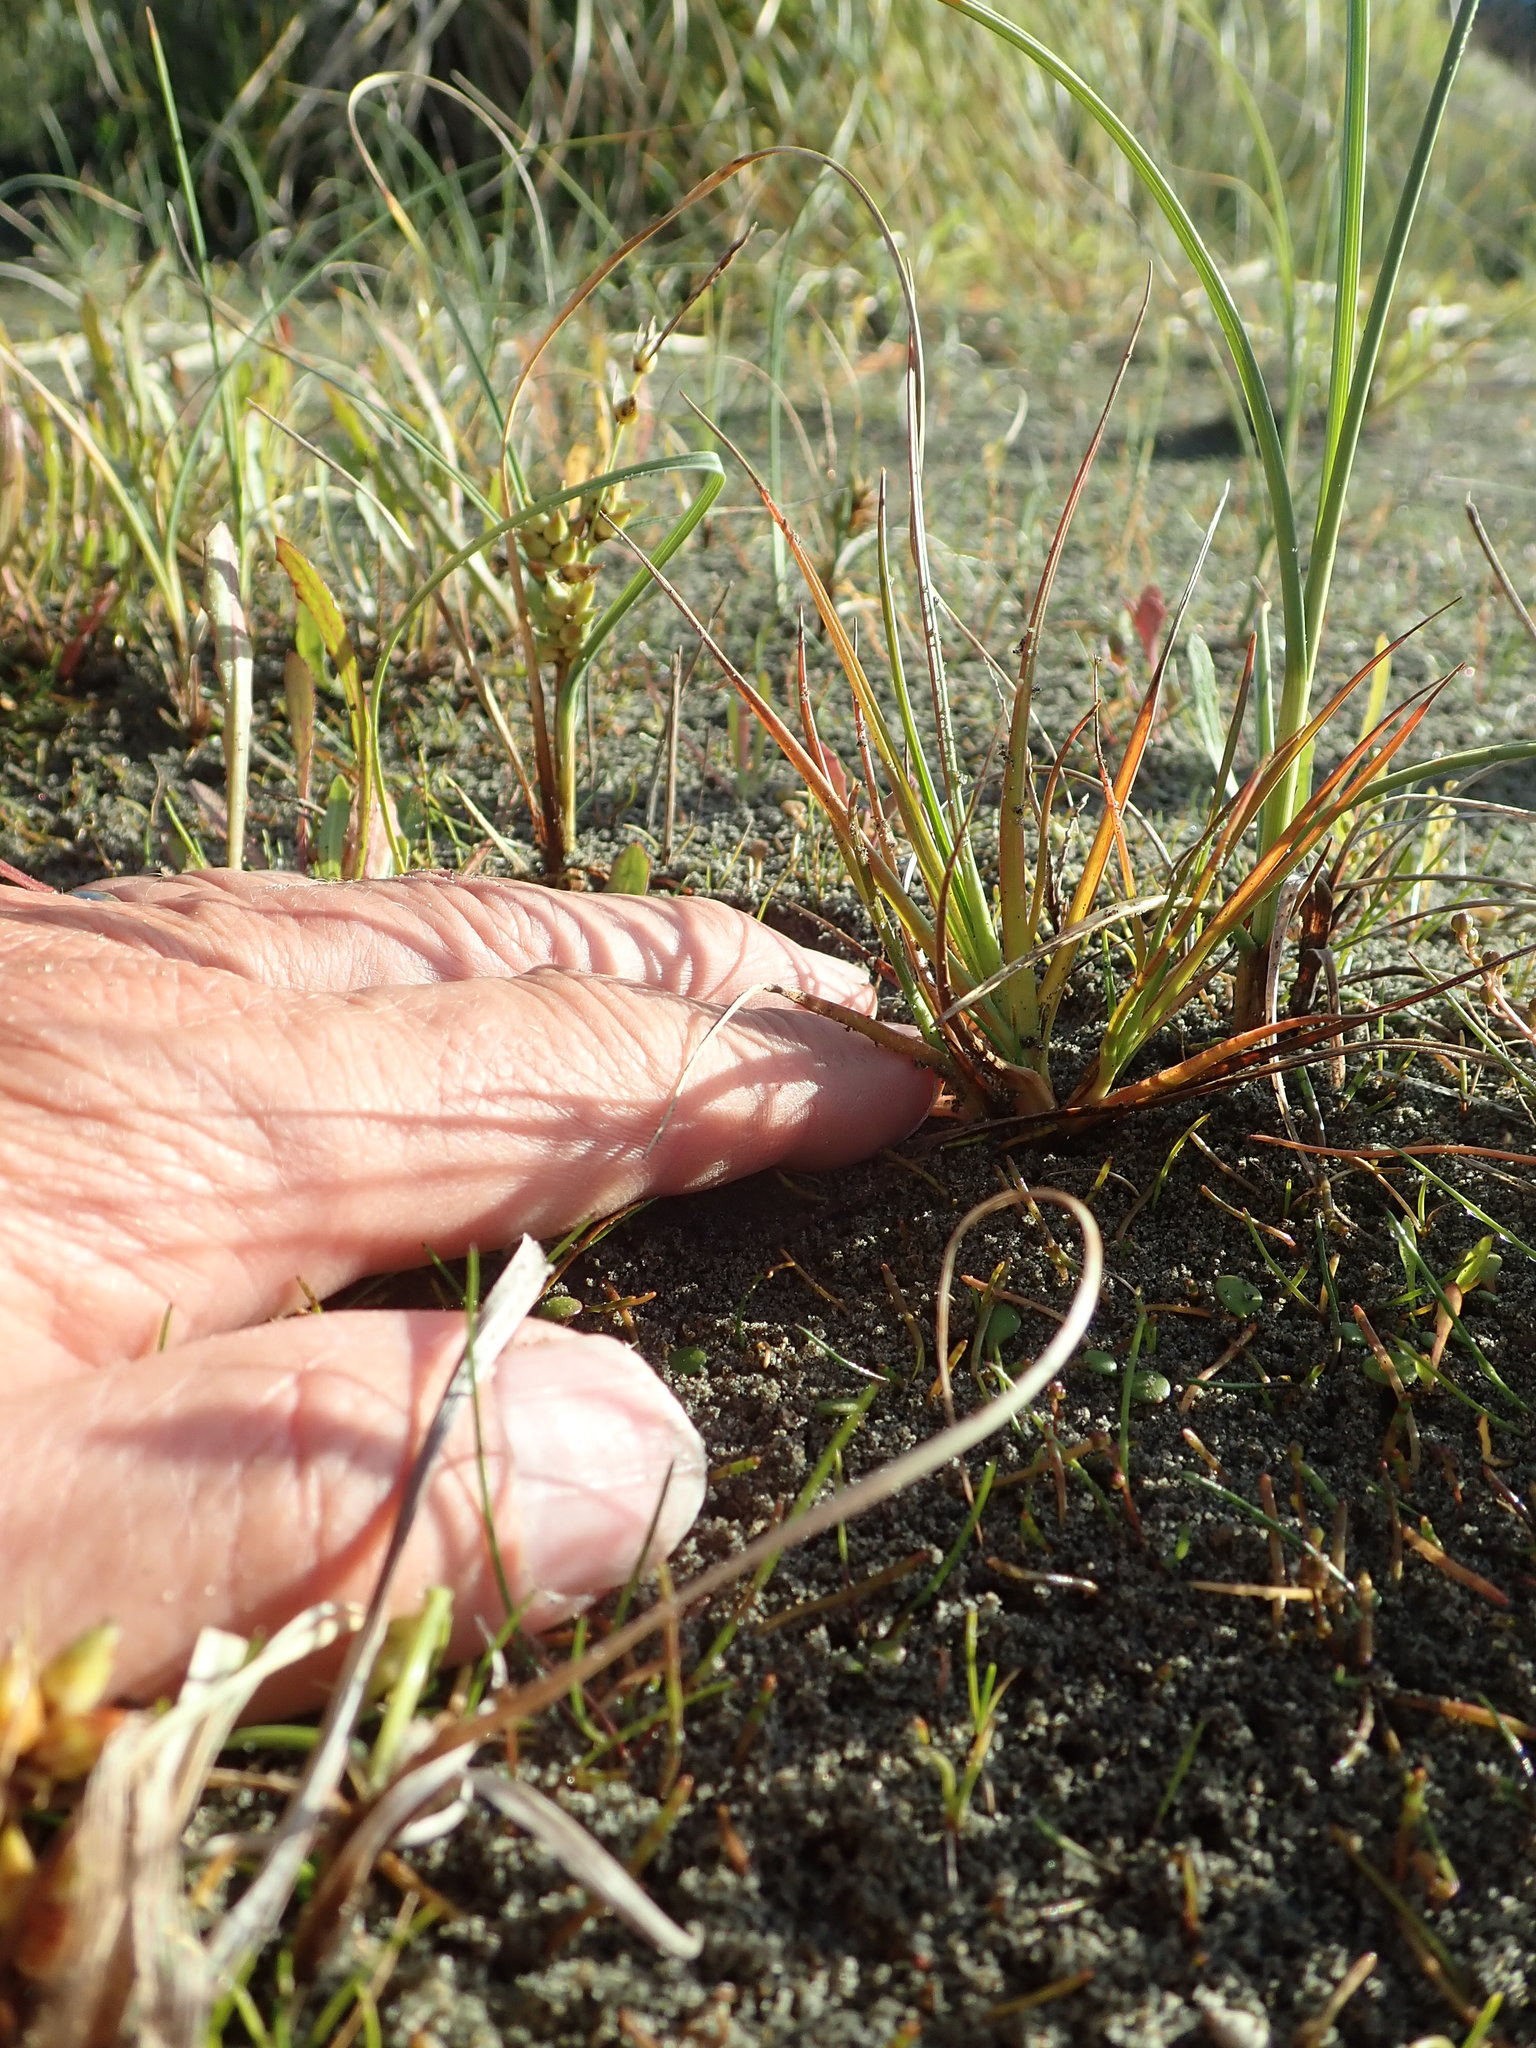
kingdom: Plantae
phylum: Tracheophyta
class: Liliopsida
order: Poales
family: Juncaceae
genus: Juncus
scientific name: Juncus caespiticius
